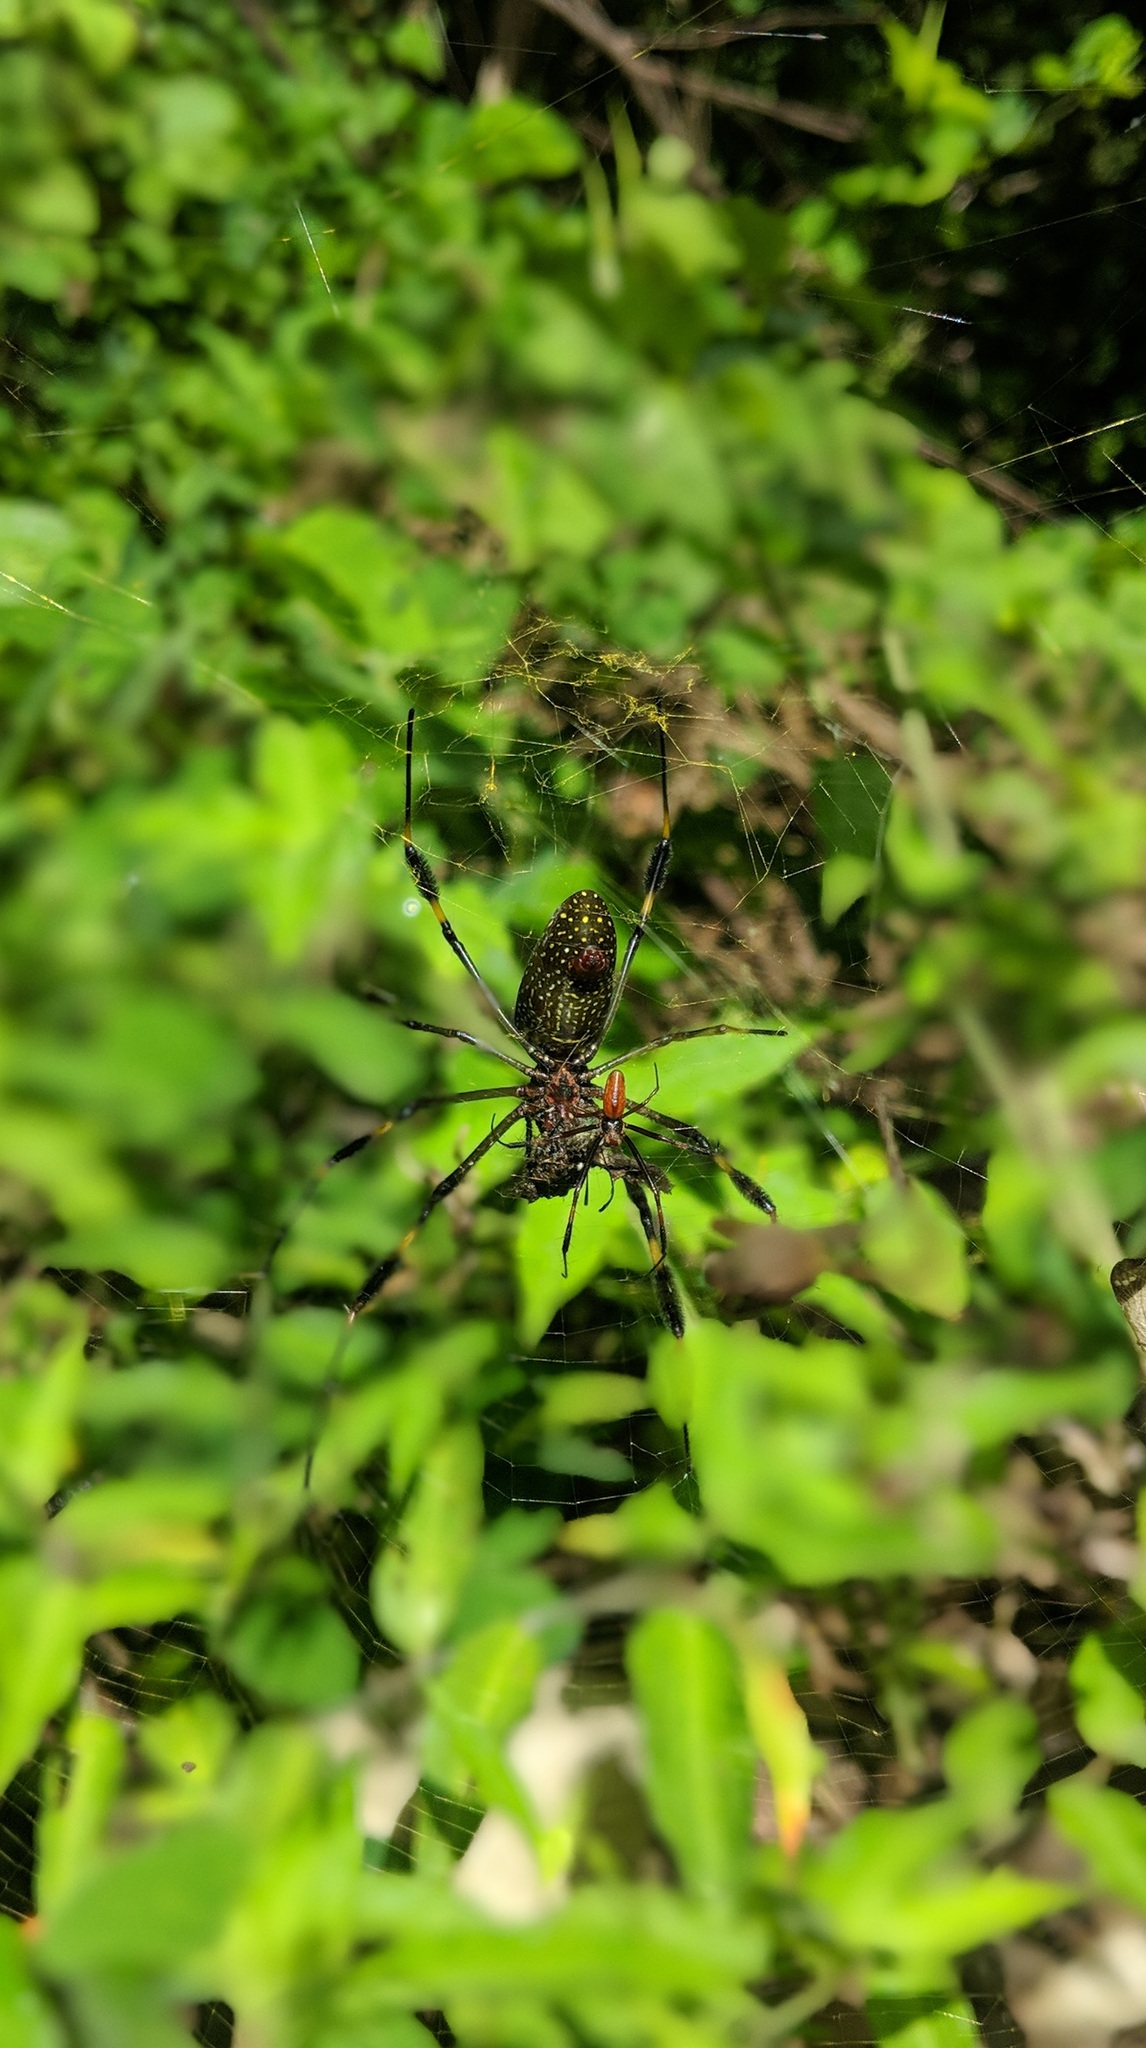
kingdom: Animalia
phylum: Arthropoda
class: Arachnida
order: Araneae
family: Araneidae
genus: Trichonephila
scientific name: Trichonephila clavipes
